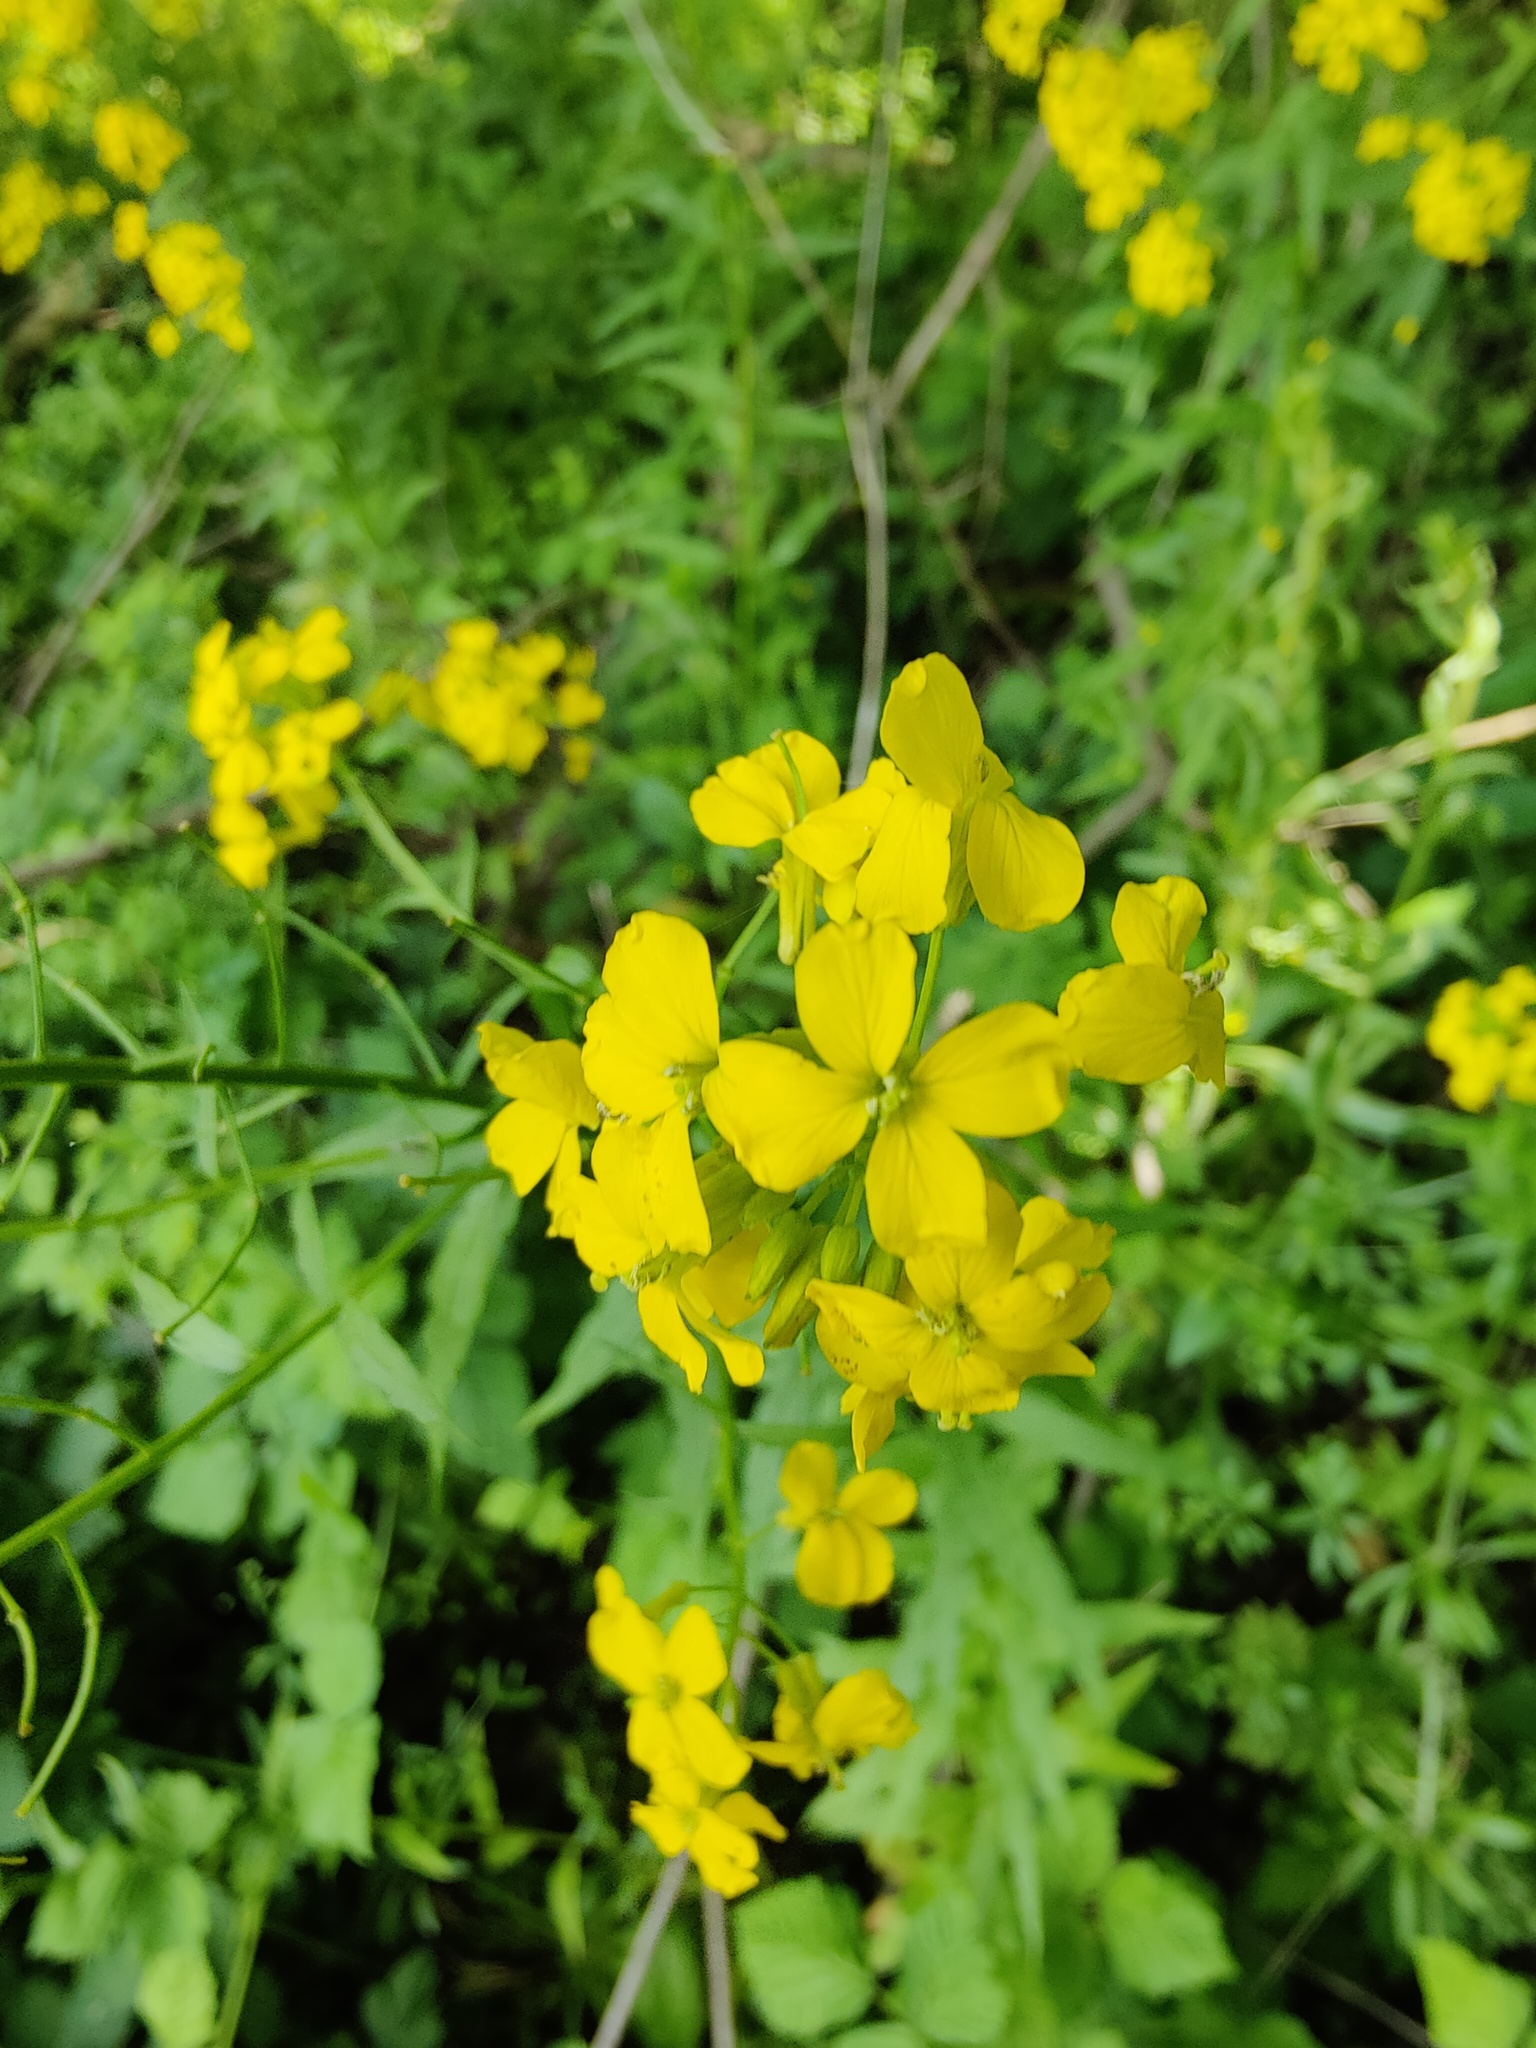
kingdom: Plantae
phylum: Tracheophyta
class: Magnoliopsida
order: Brassicales
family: Brassicaceae
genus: Erysimum
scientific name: Erysimum aureum
